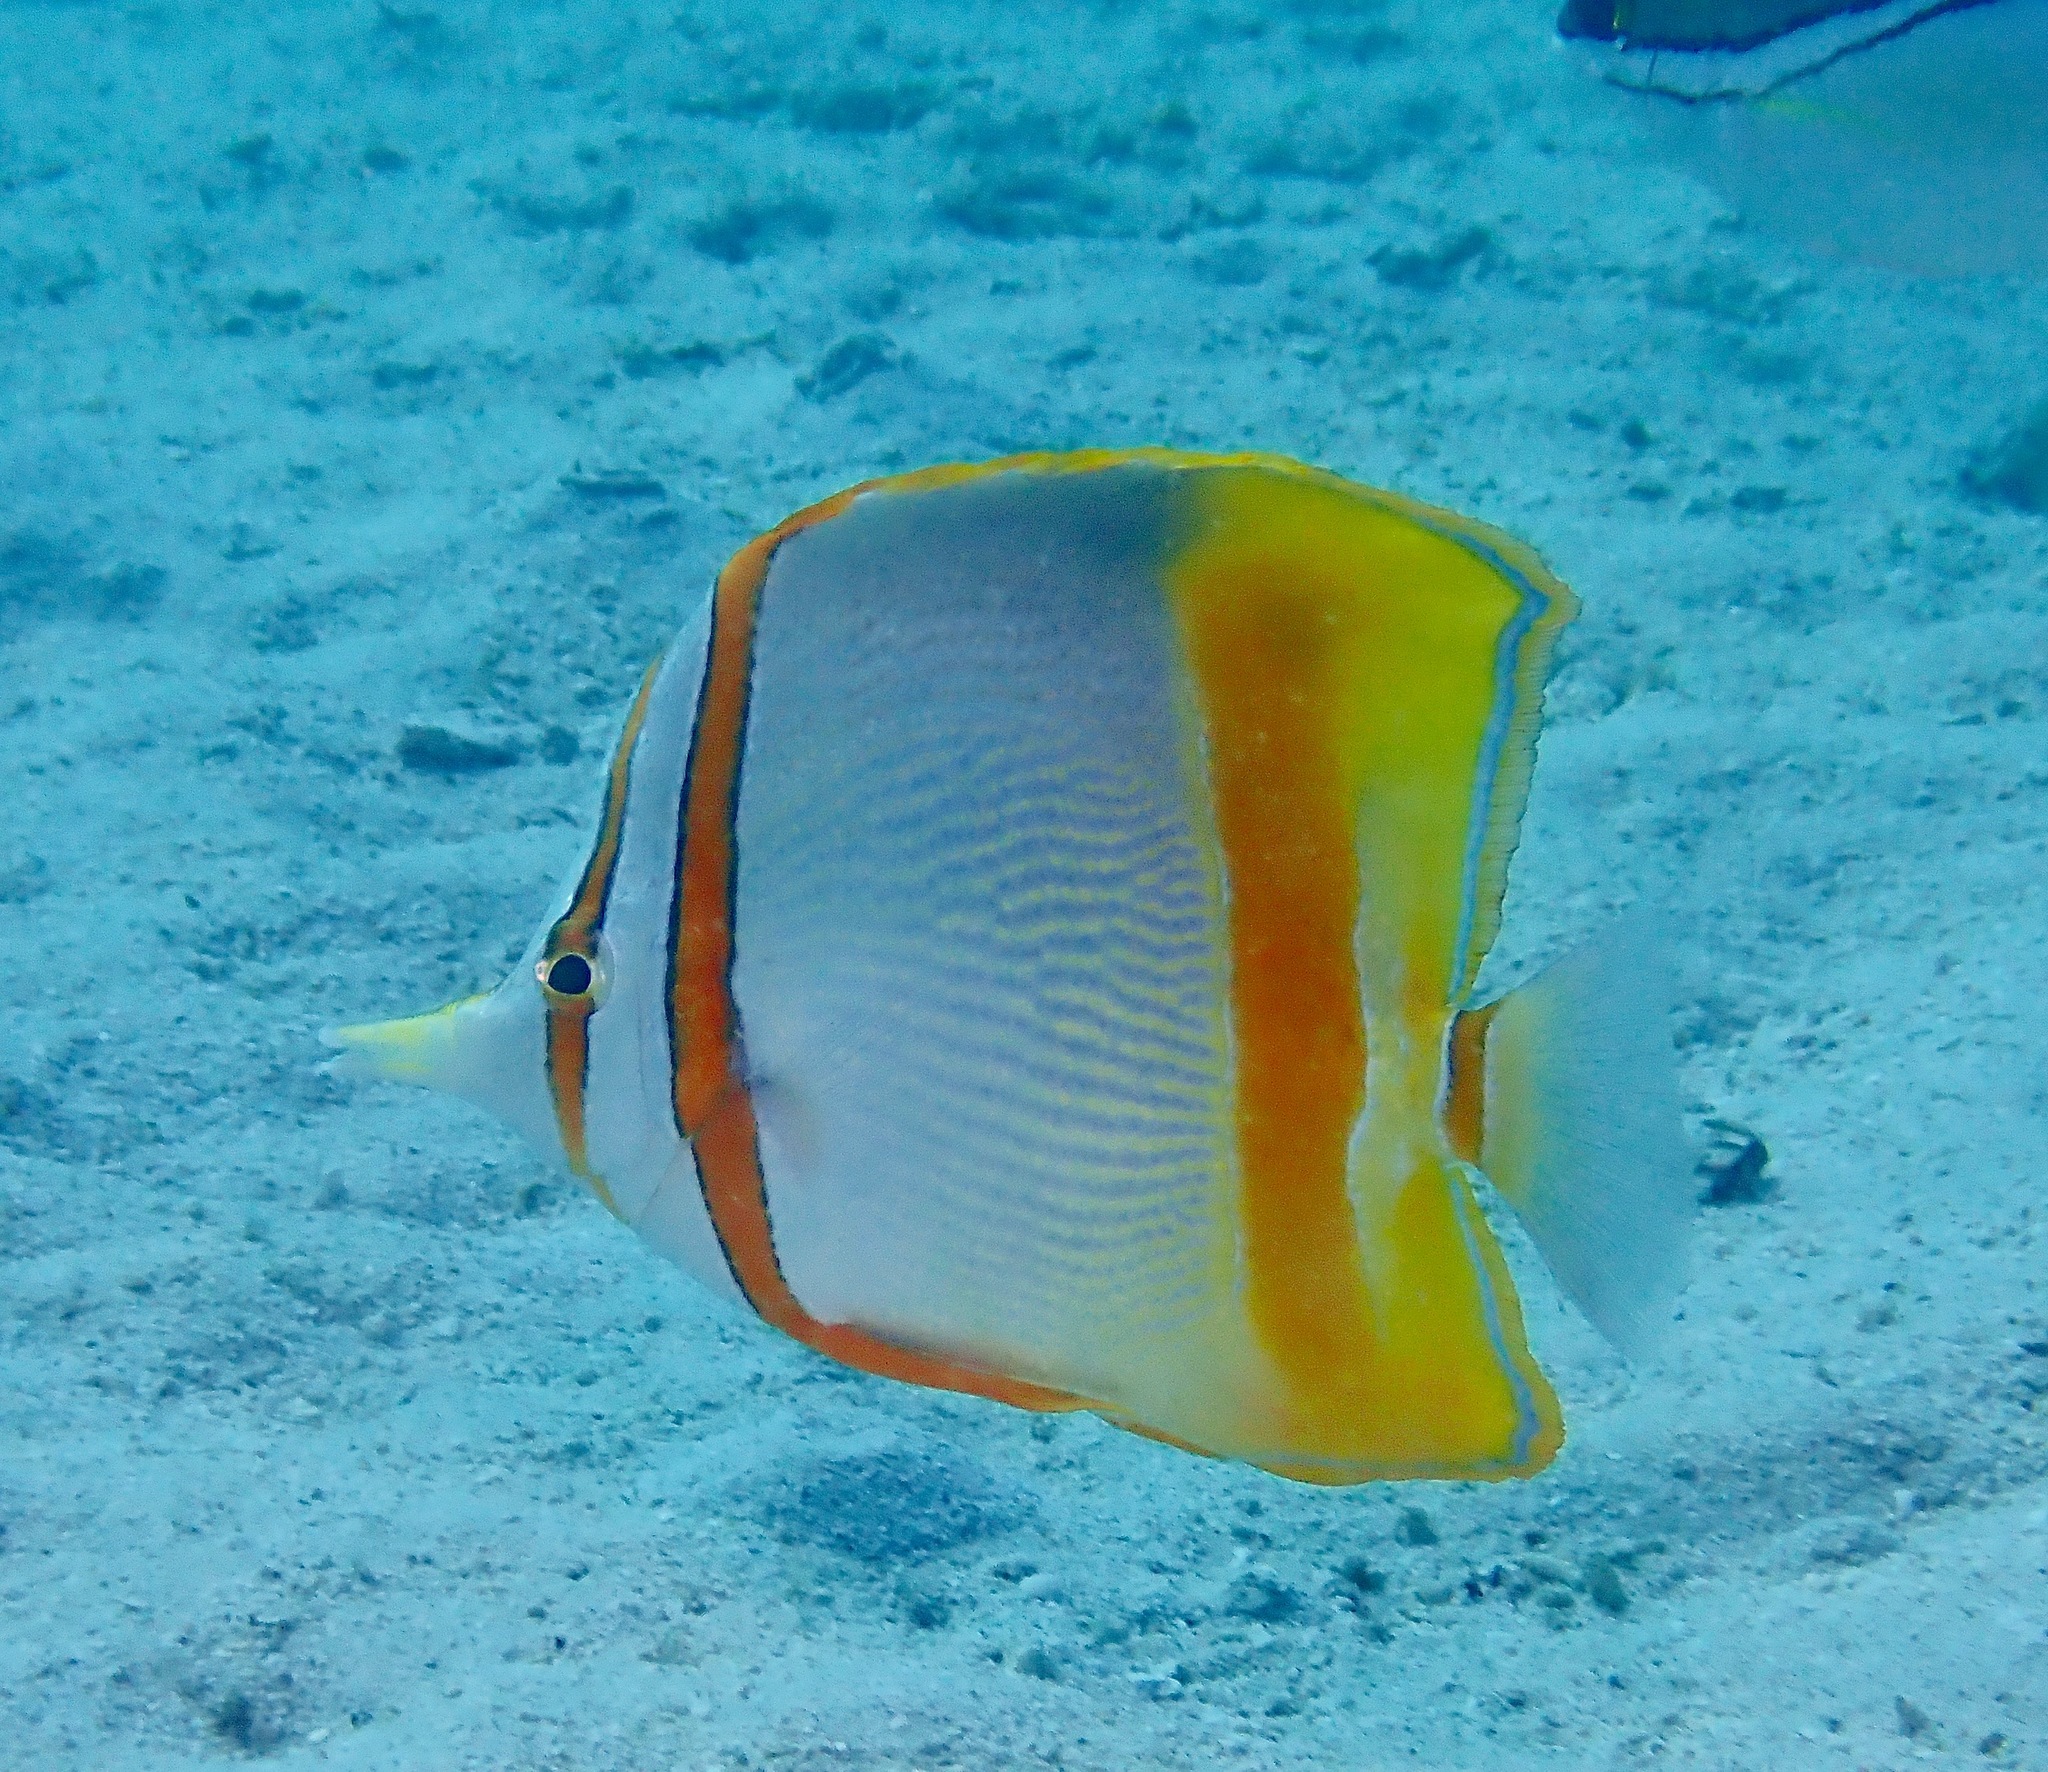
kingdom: Animalia
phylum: Chordata
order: Perciformes
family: Chaetodontidae
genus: Chelmon
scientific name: Chelmon marginalis
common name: Margined coralfish
